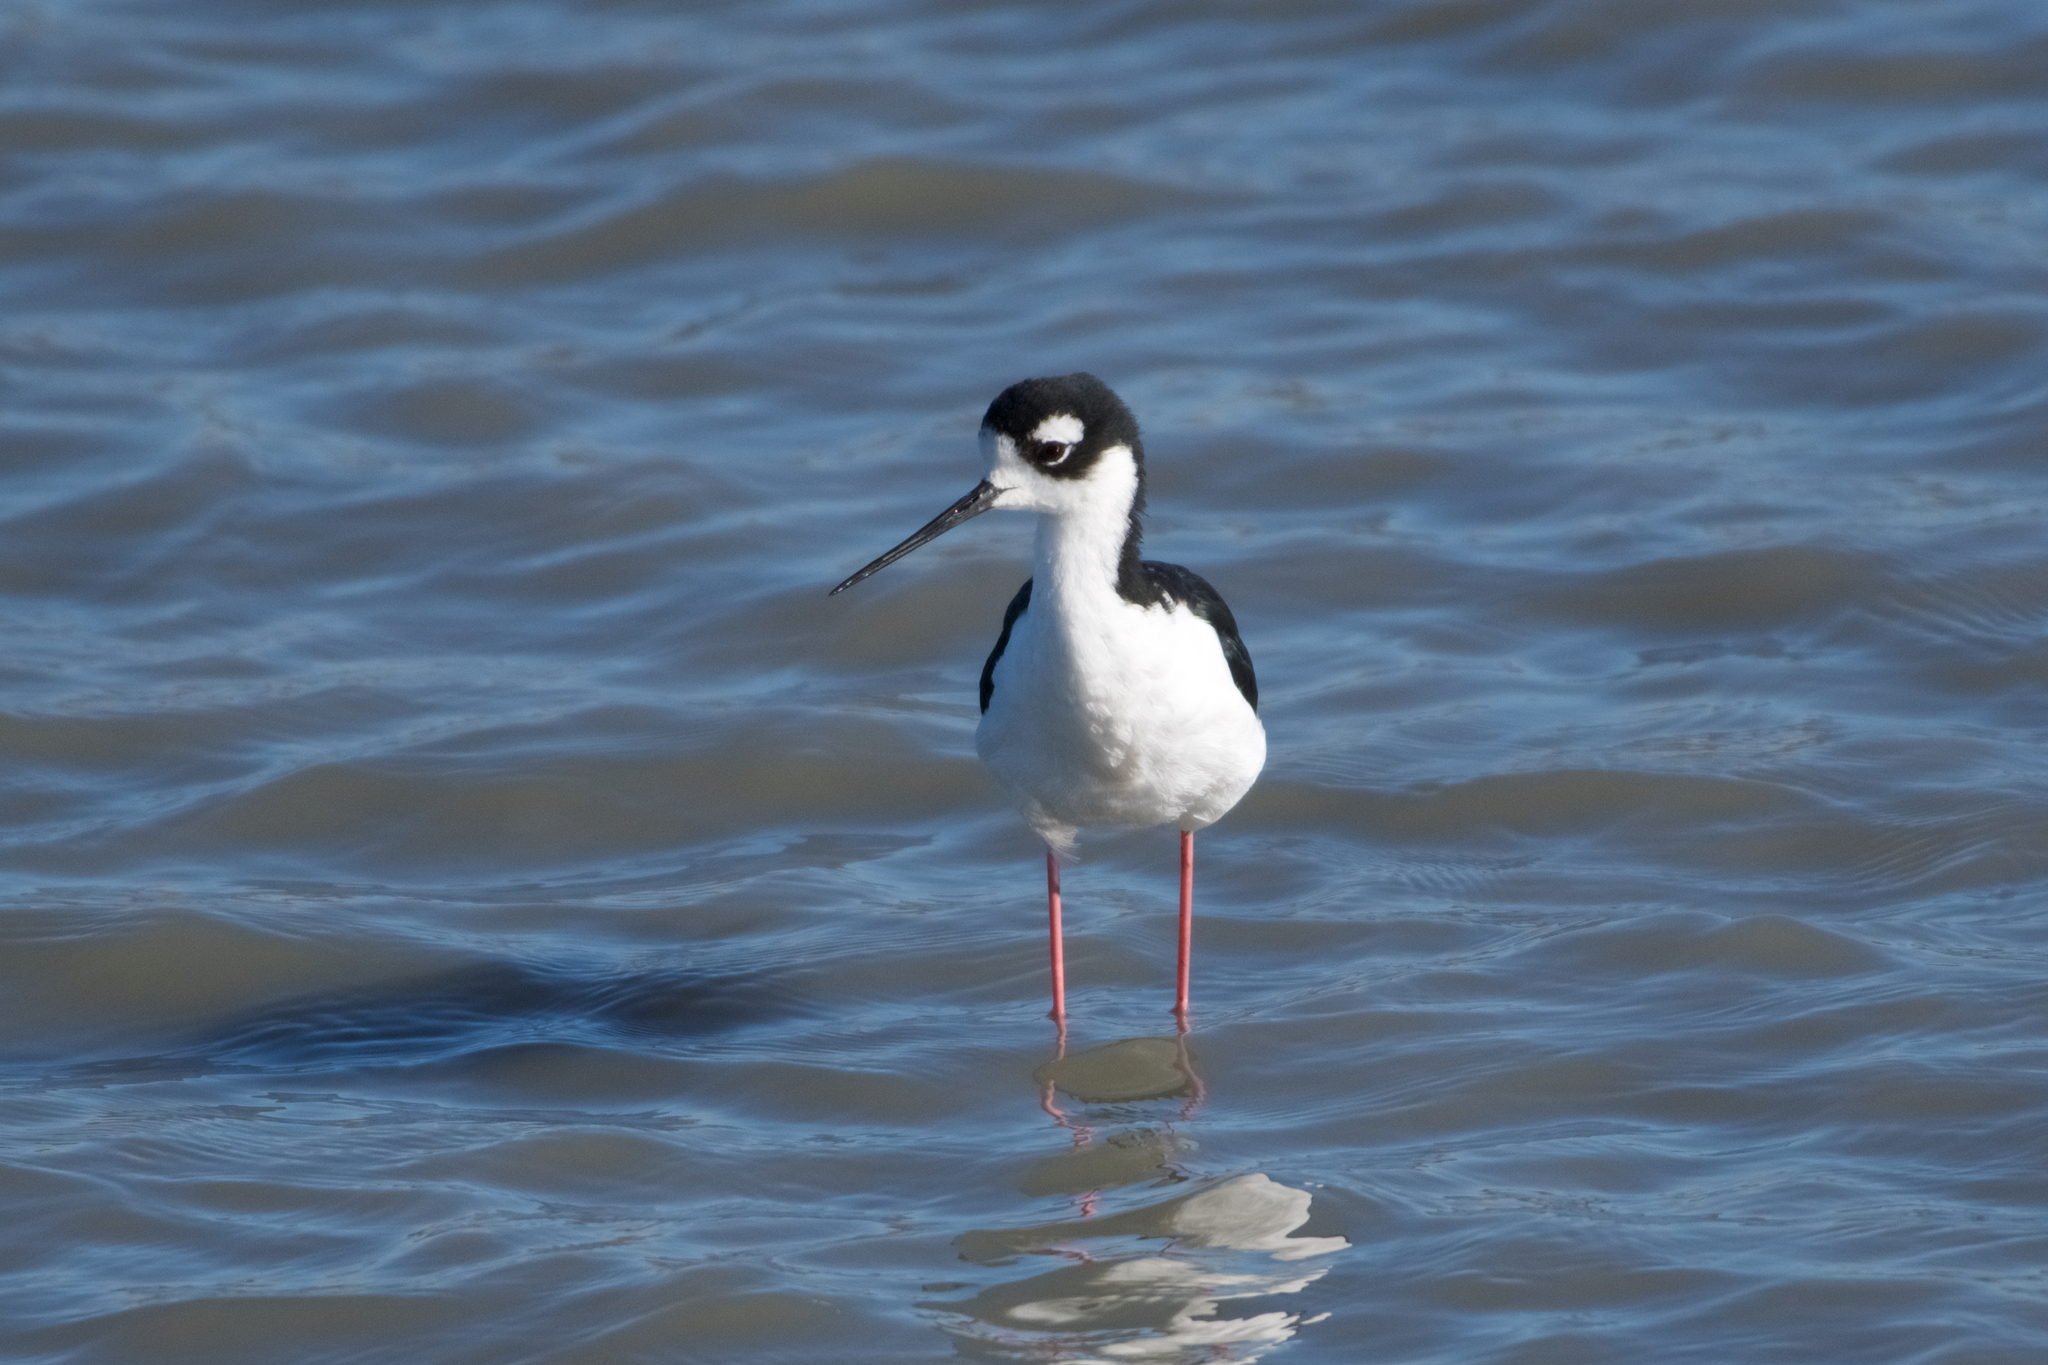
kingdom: Animalia
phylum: Chordata
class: Aves
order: Charadriiformes
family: Recurvirostridae
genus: Himantopus
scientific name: Himantopus mexicanus
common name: Black-necked stilt
